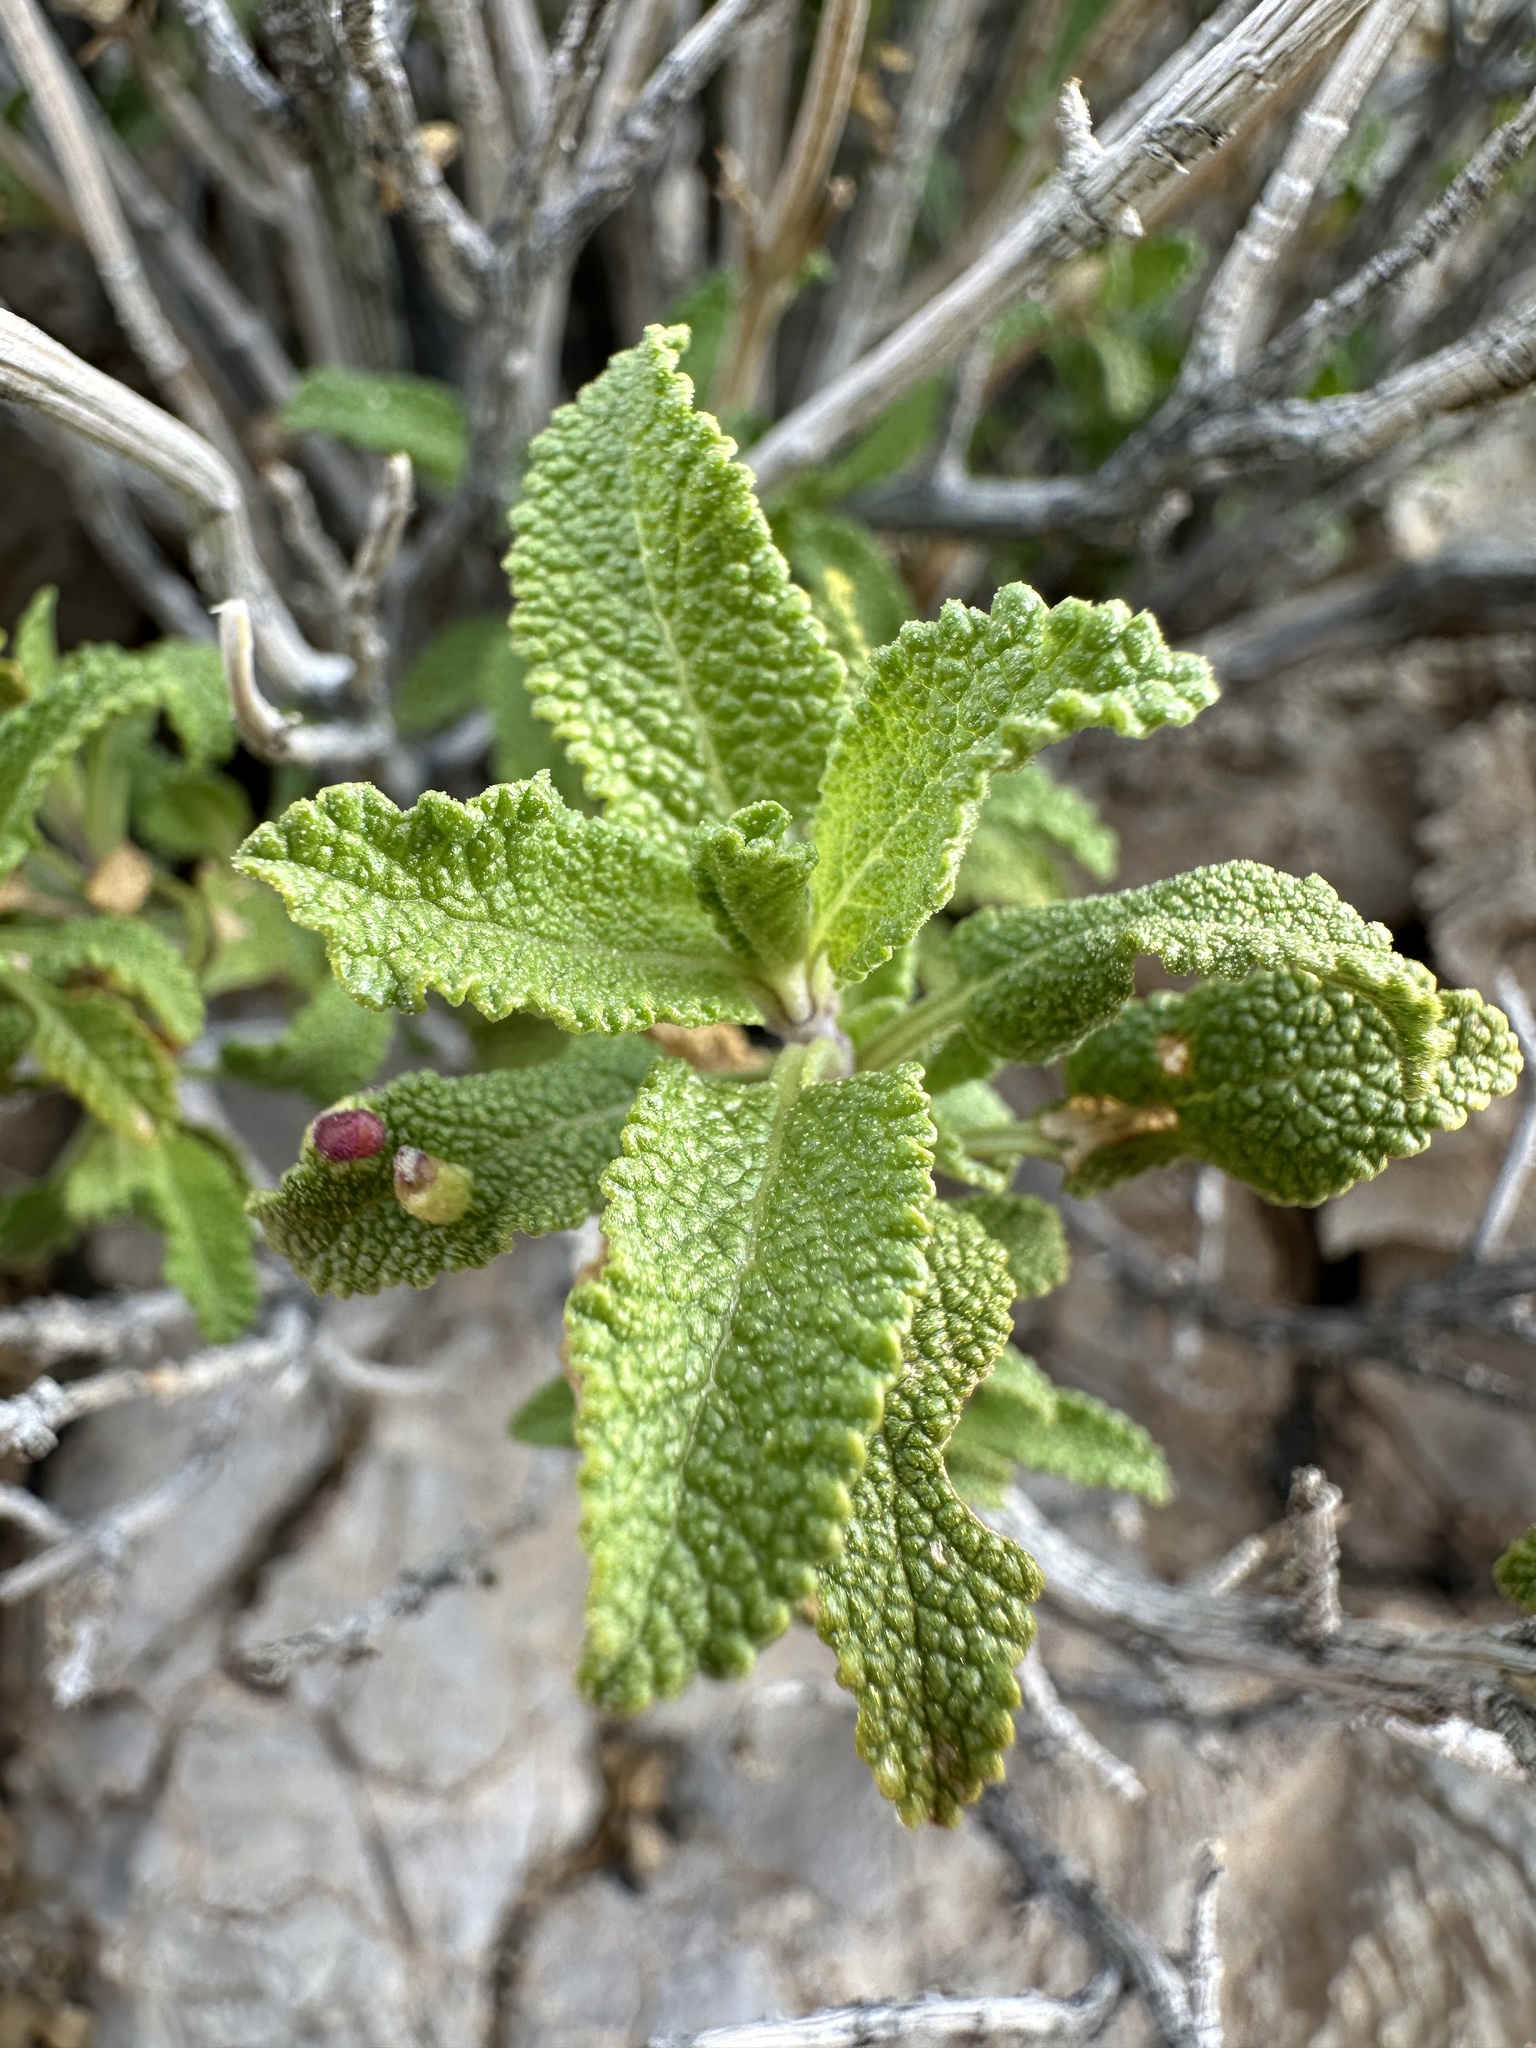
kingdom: Plantae
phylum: Tracheophyta
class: Magnoliopsida
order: Lamiales
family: Lamiaceae
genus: Salvia
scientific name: Salvia mohavensis
